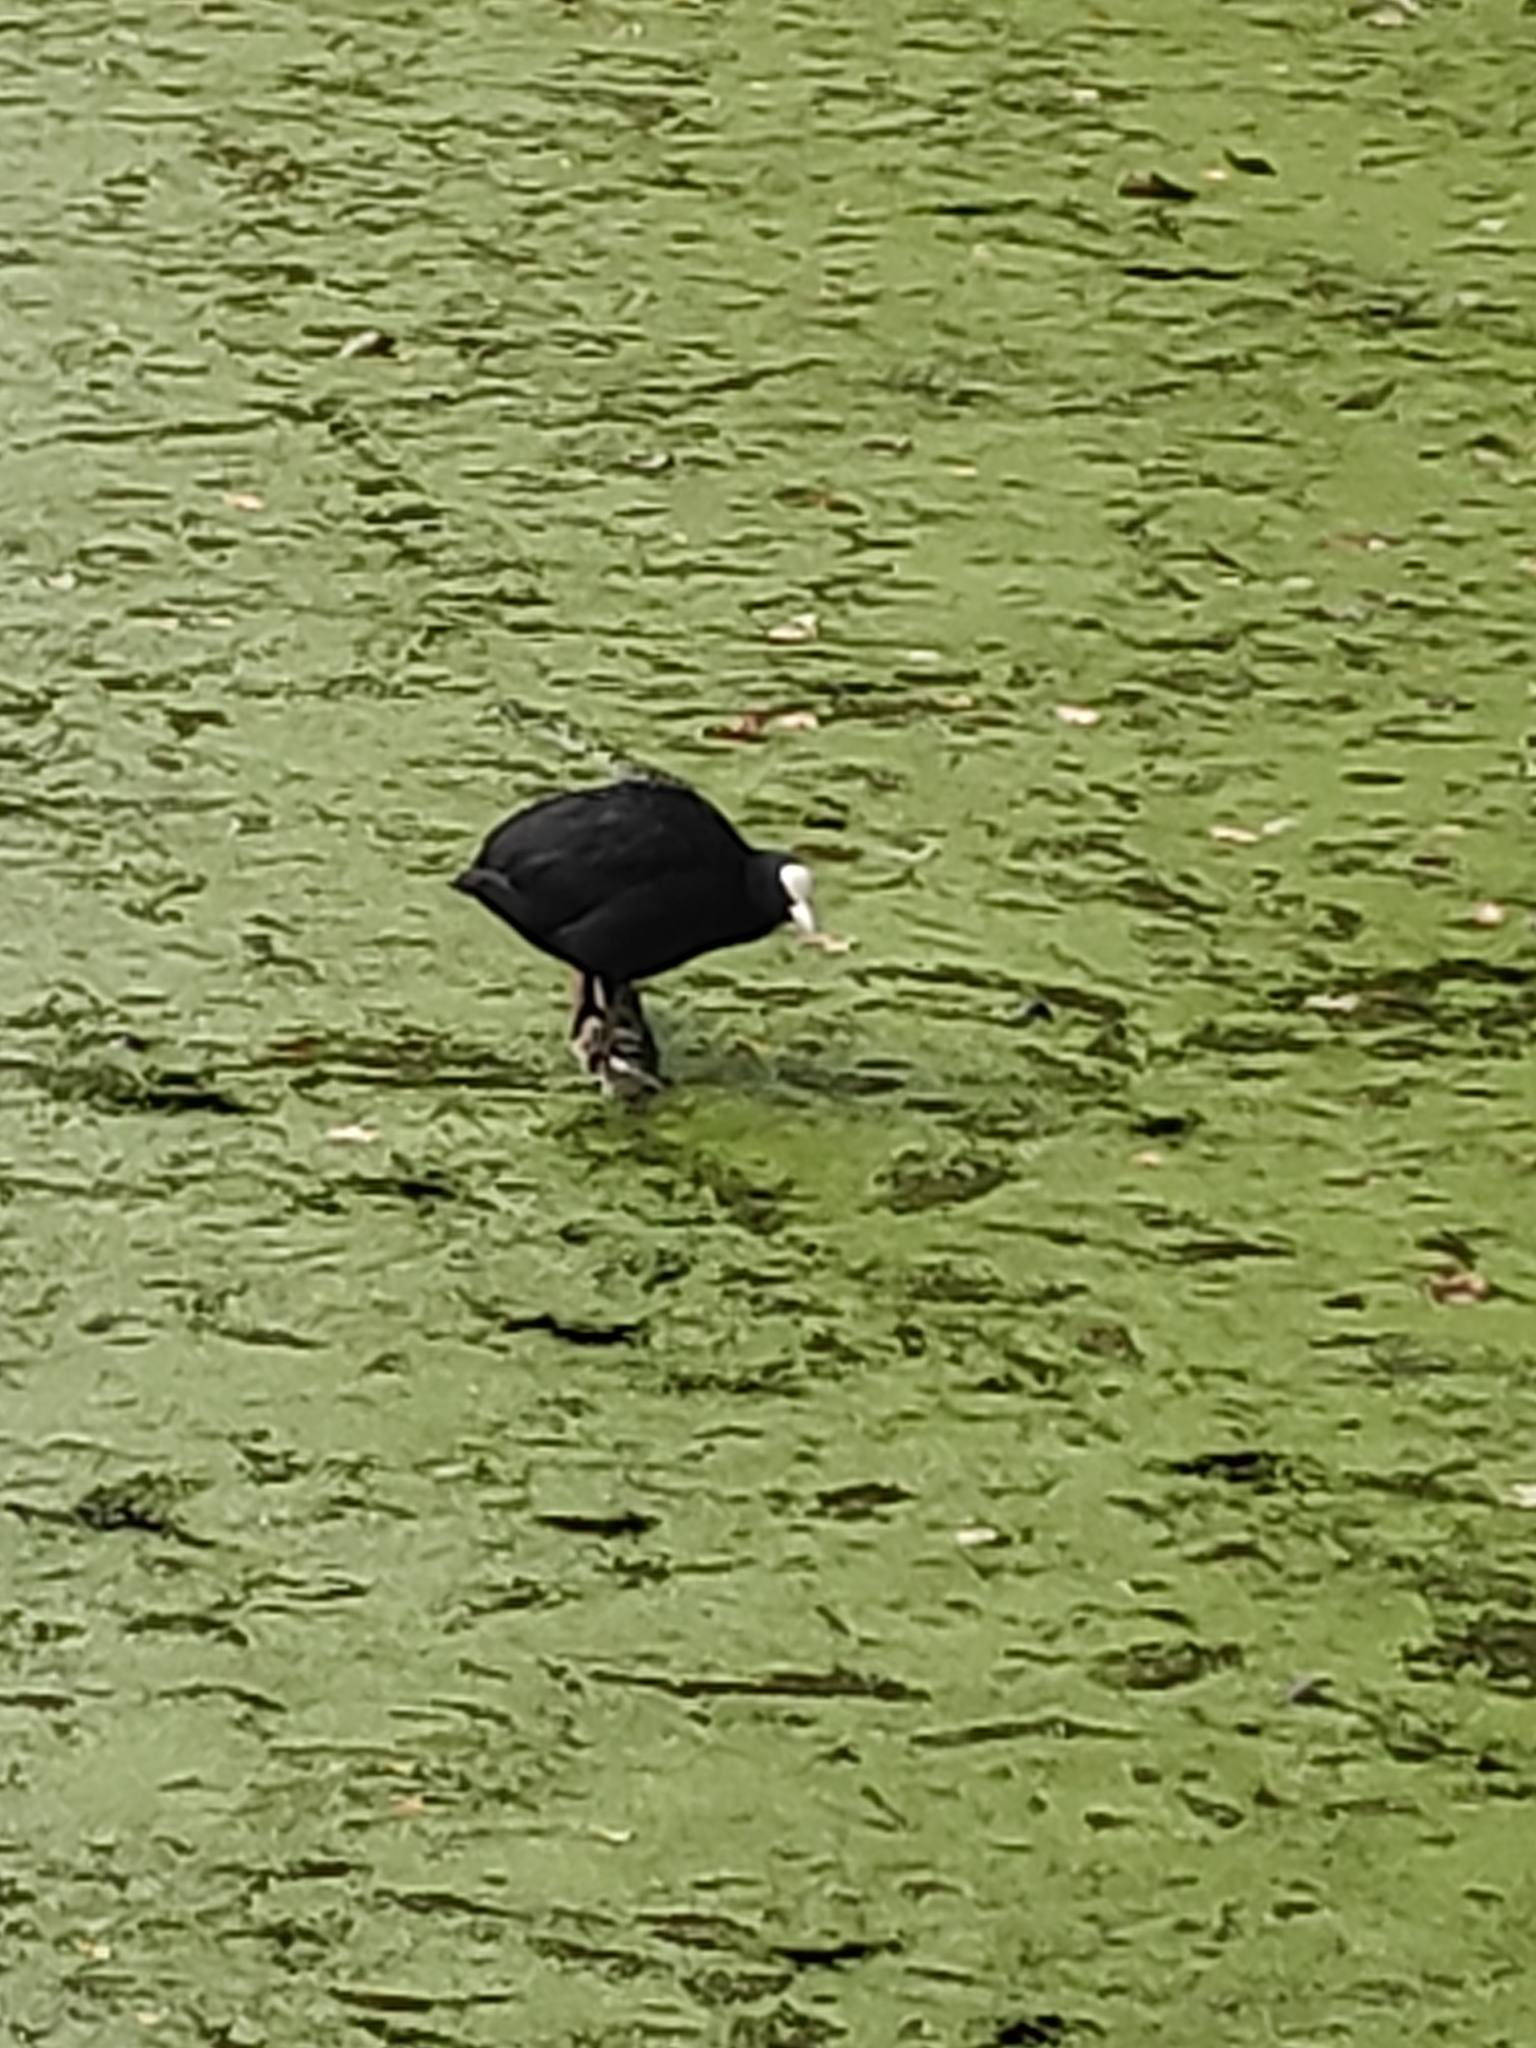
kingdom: Animalia
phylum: Chordata
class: Aves
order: Gruiformes
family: Rallidae
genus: Fulica
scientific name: Fulica atra
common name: Eurasian coot
